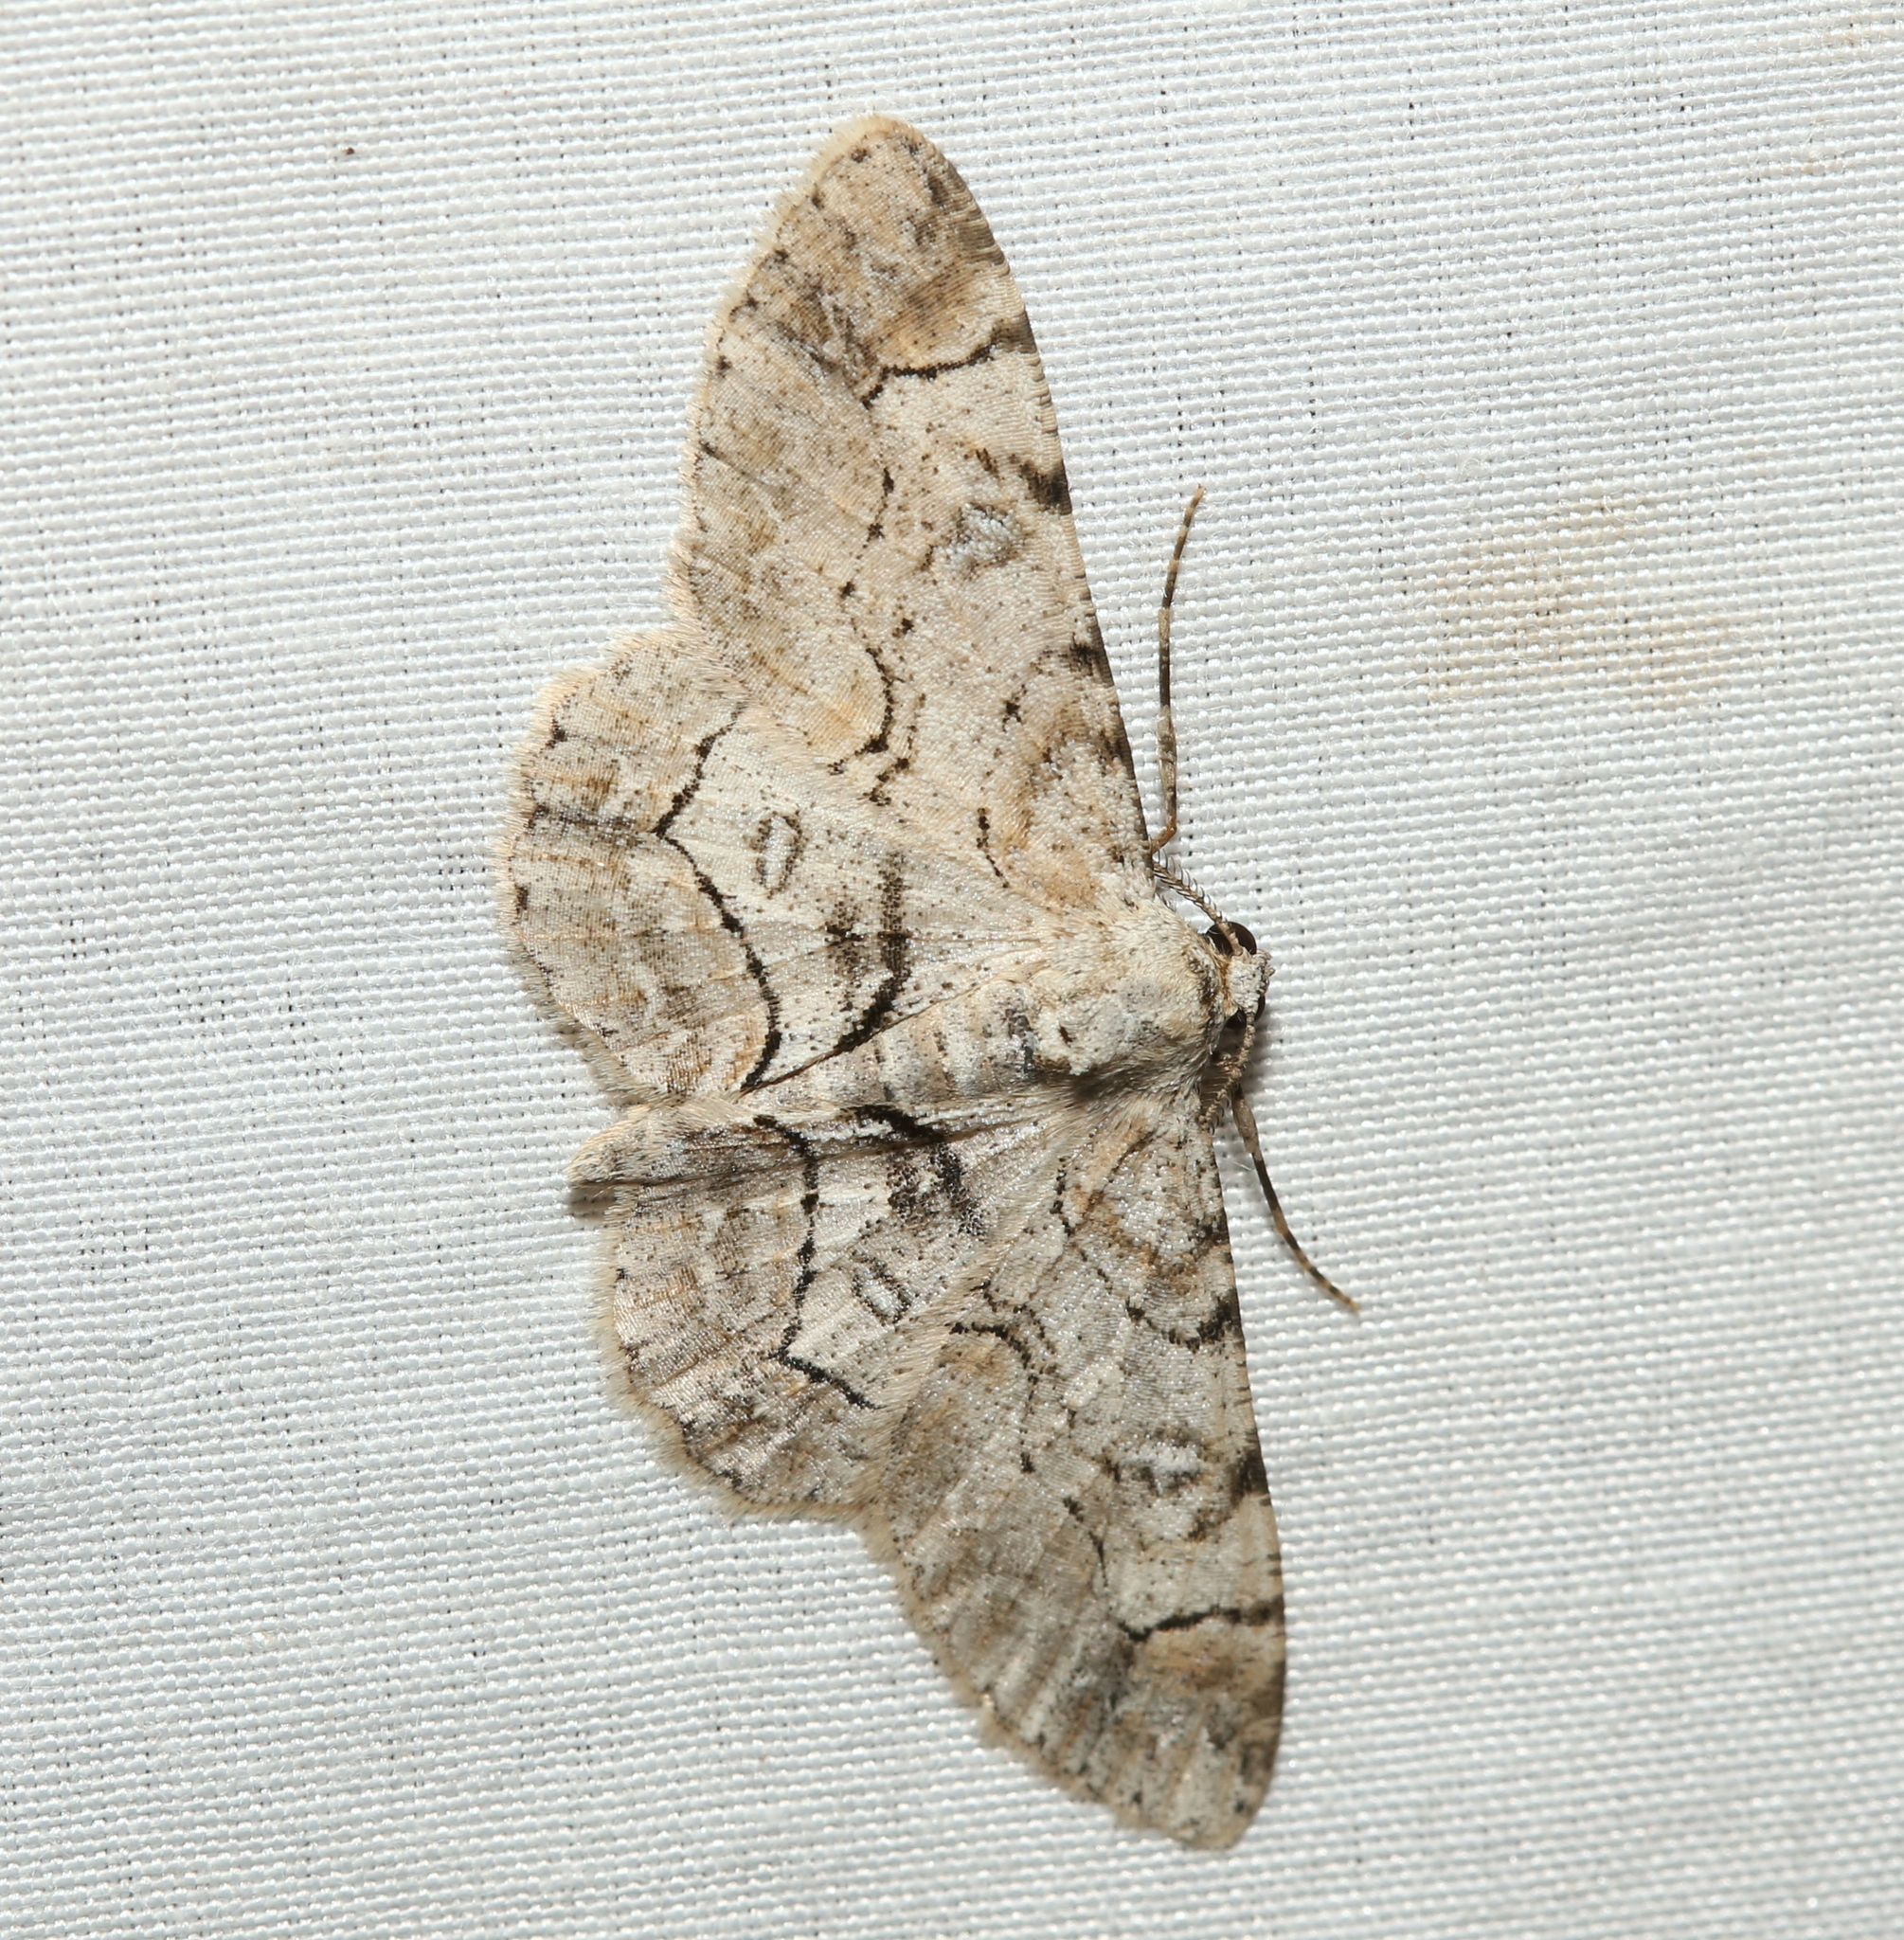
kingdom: Animalia
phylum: Arthropoda
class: Insecta
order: Lepidoptera
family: Geometridae
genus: Iridopsis
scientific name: Iridopsis larvaria
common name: Bent-line gray
